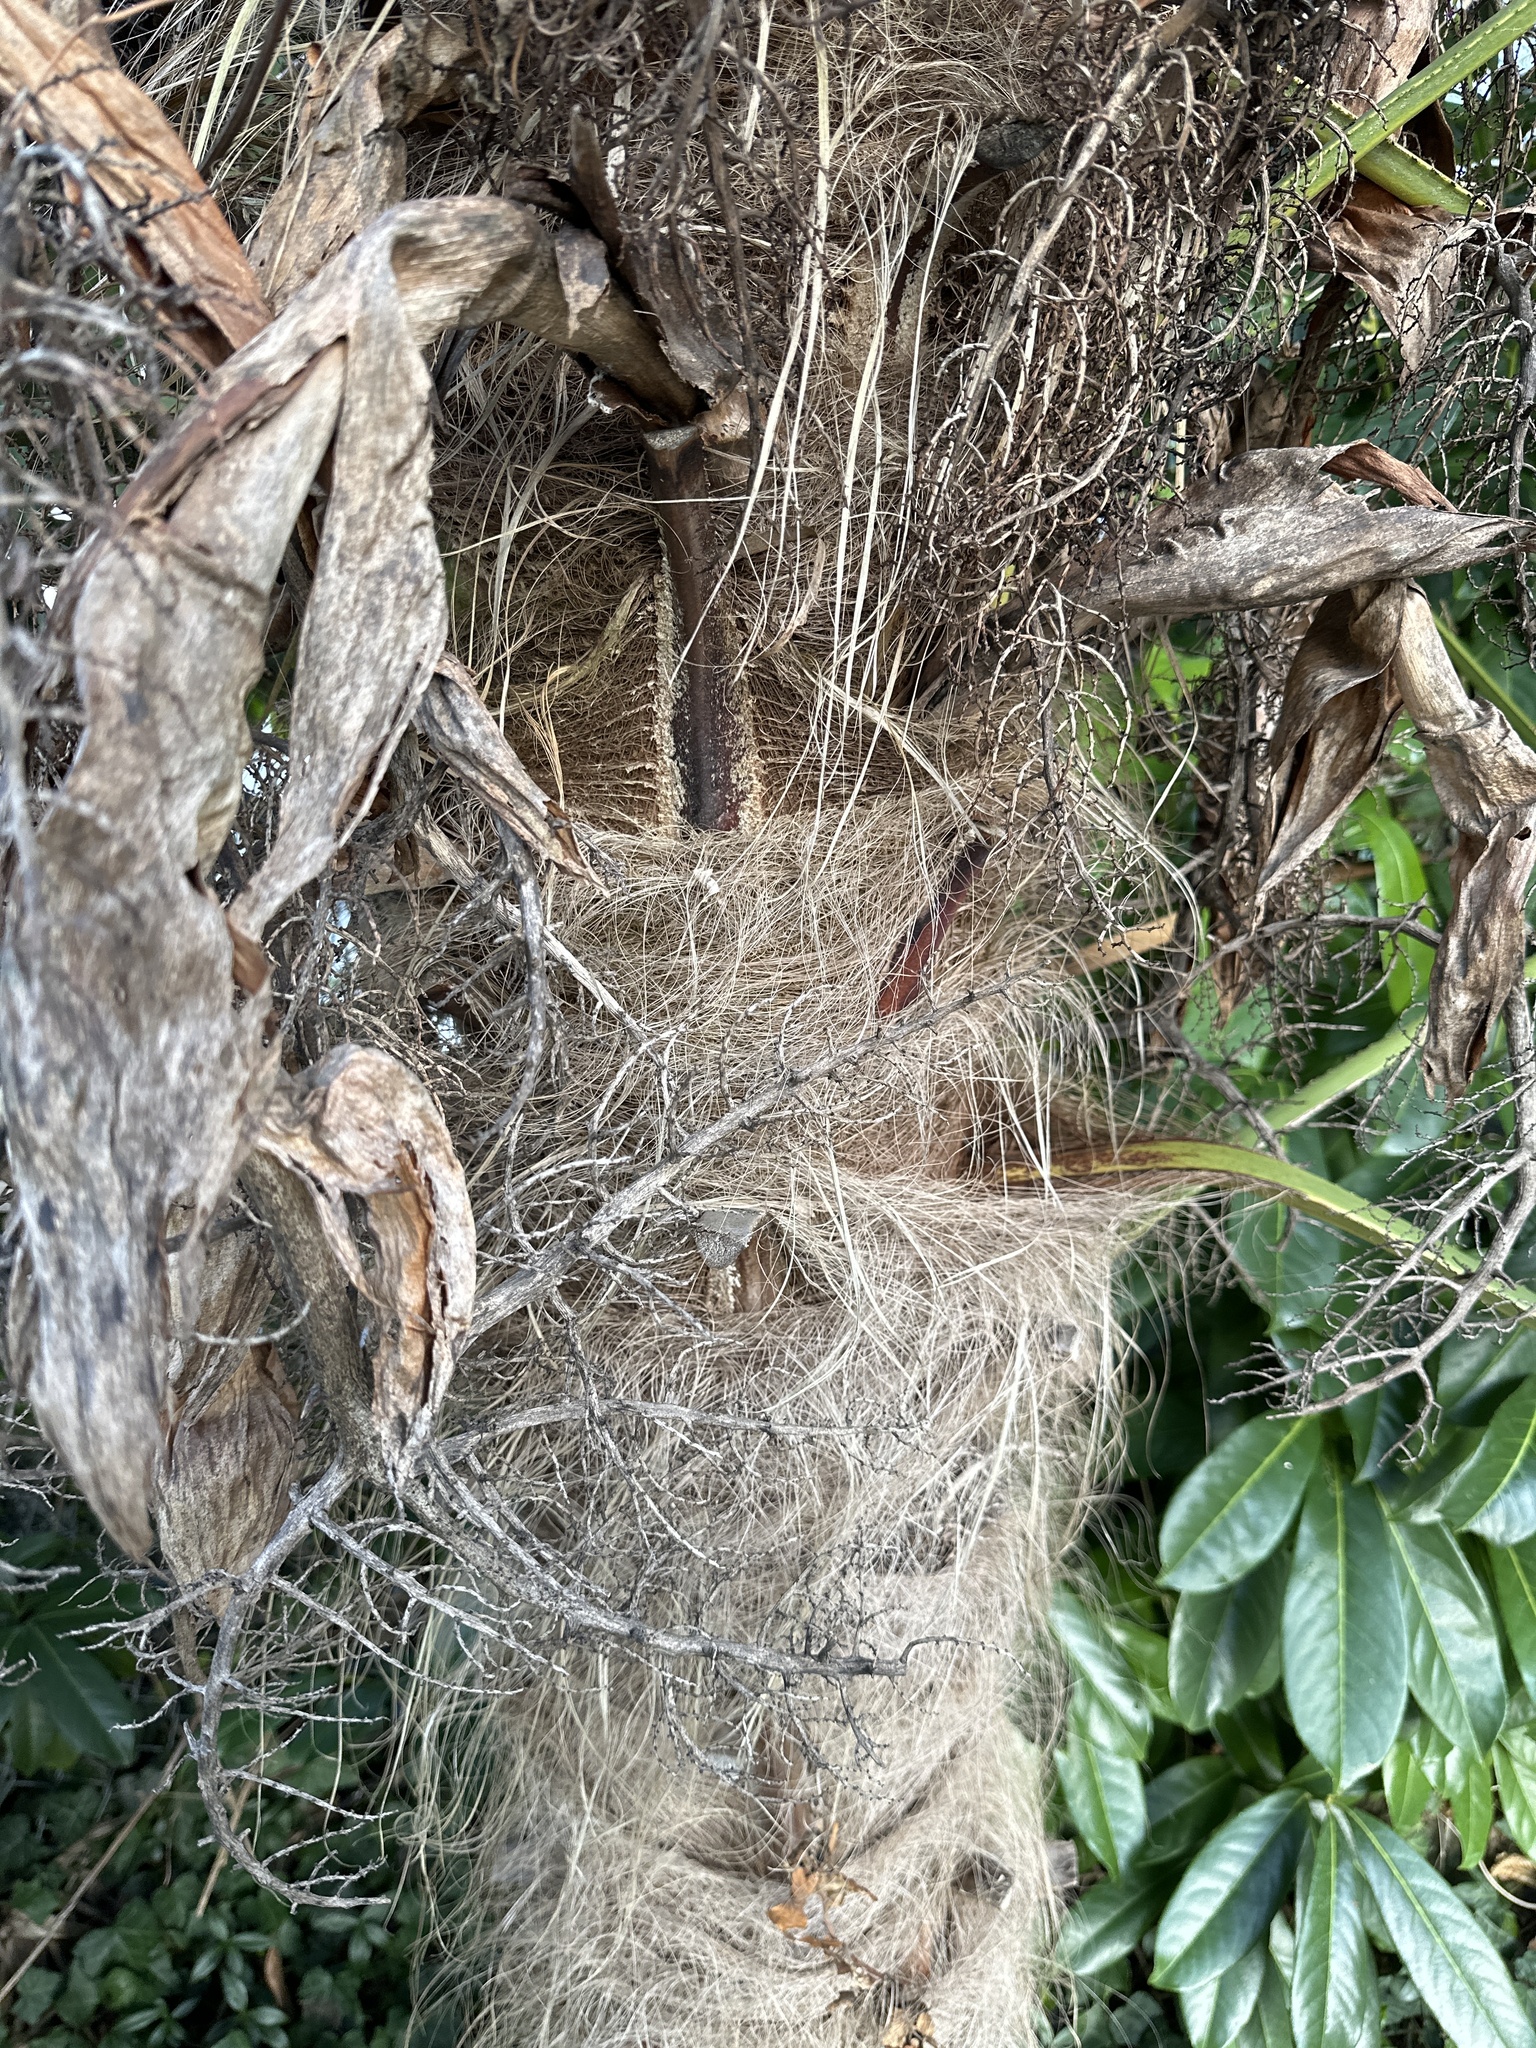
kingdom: Plantae
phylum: Tracheophyta
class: Liliopsida
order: Arecales
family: Arecaceae
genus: Trachycarpus
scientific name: Trachycarpus fortunei
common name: Chusan palm
